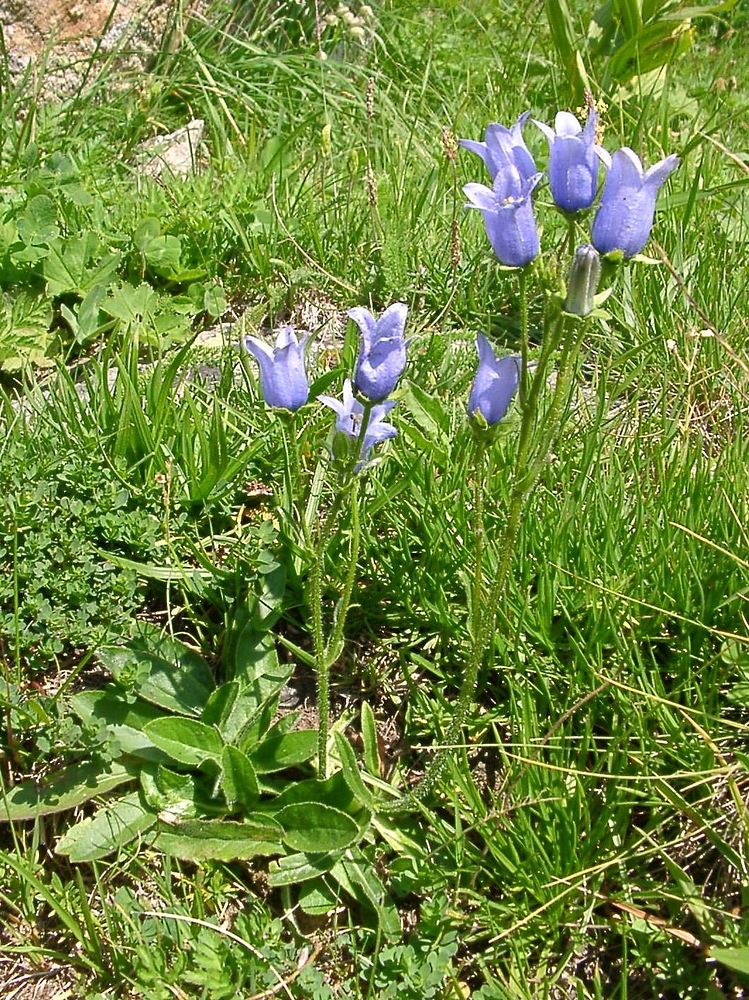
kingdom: Plantae
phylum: Tracheophyta
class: Magnoliopsida
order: Asterales
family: Campanulaceae
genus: Campanula
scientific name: Campanula barbata
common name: Bearded bellflower
